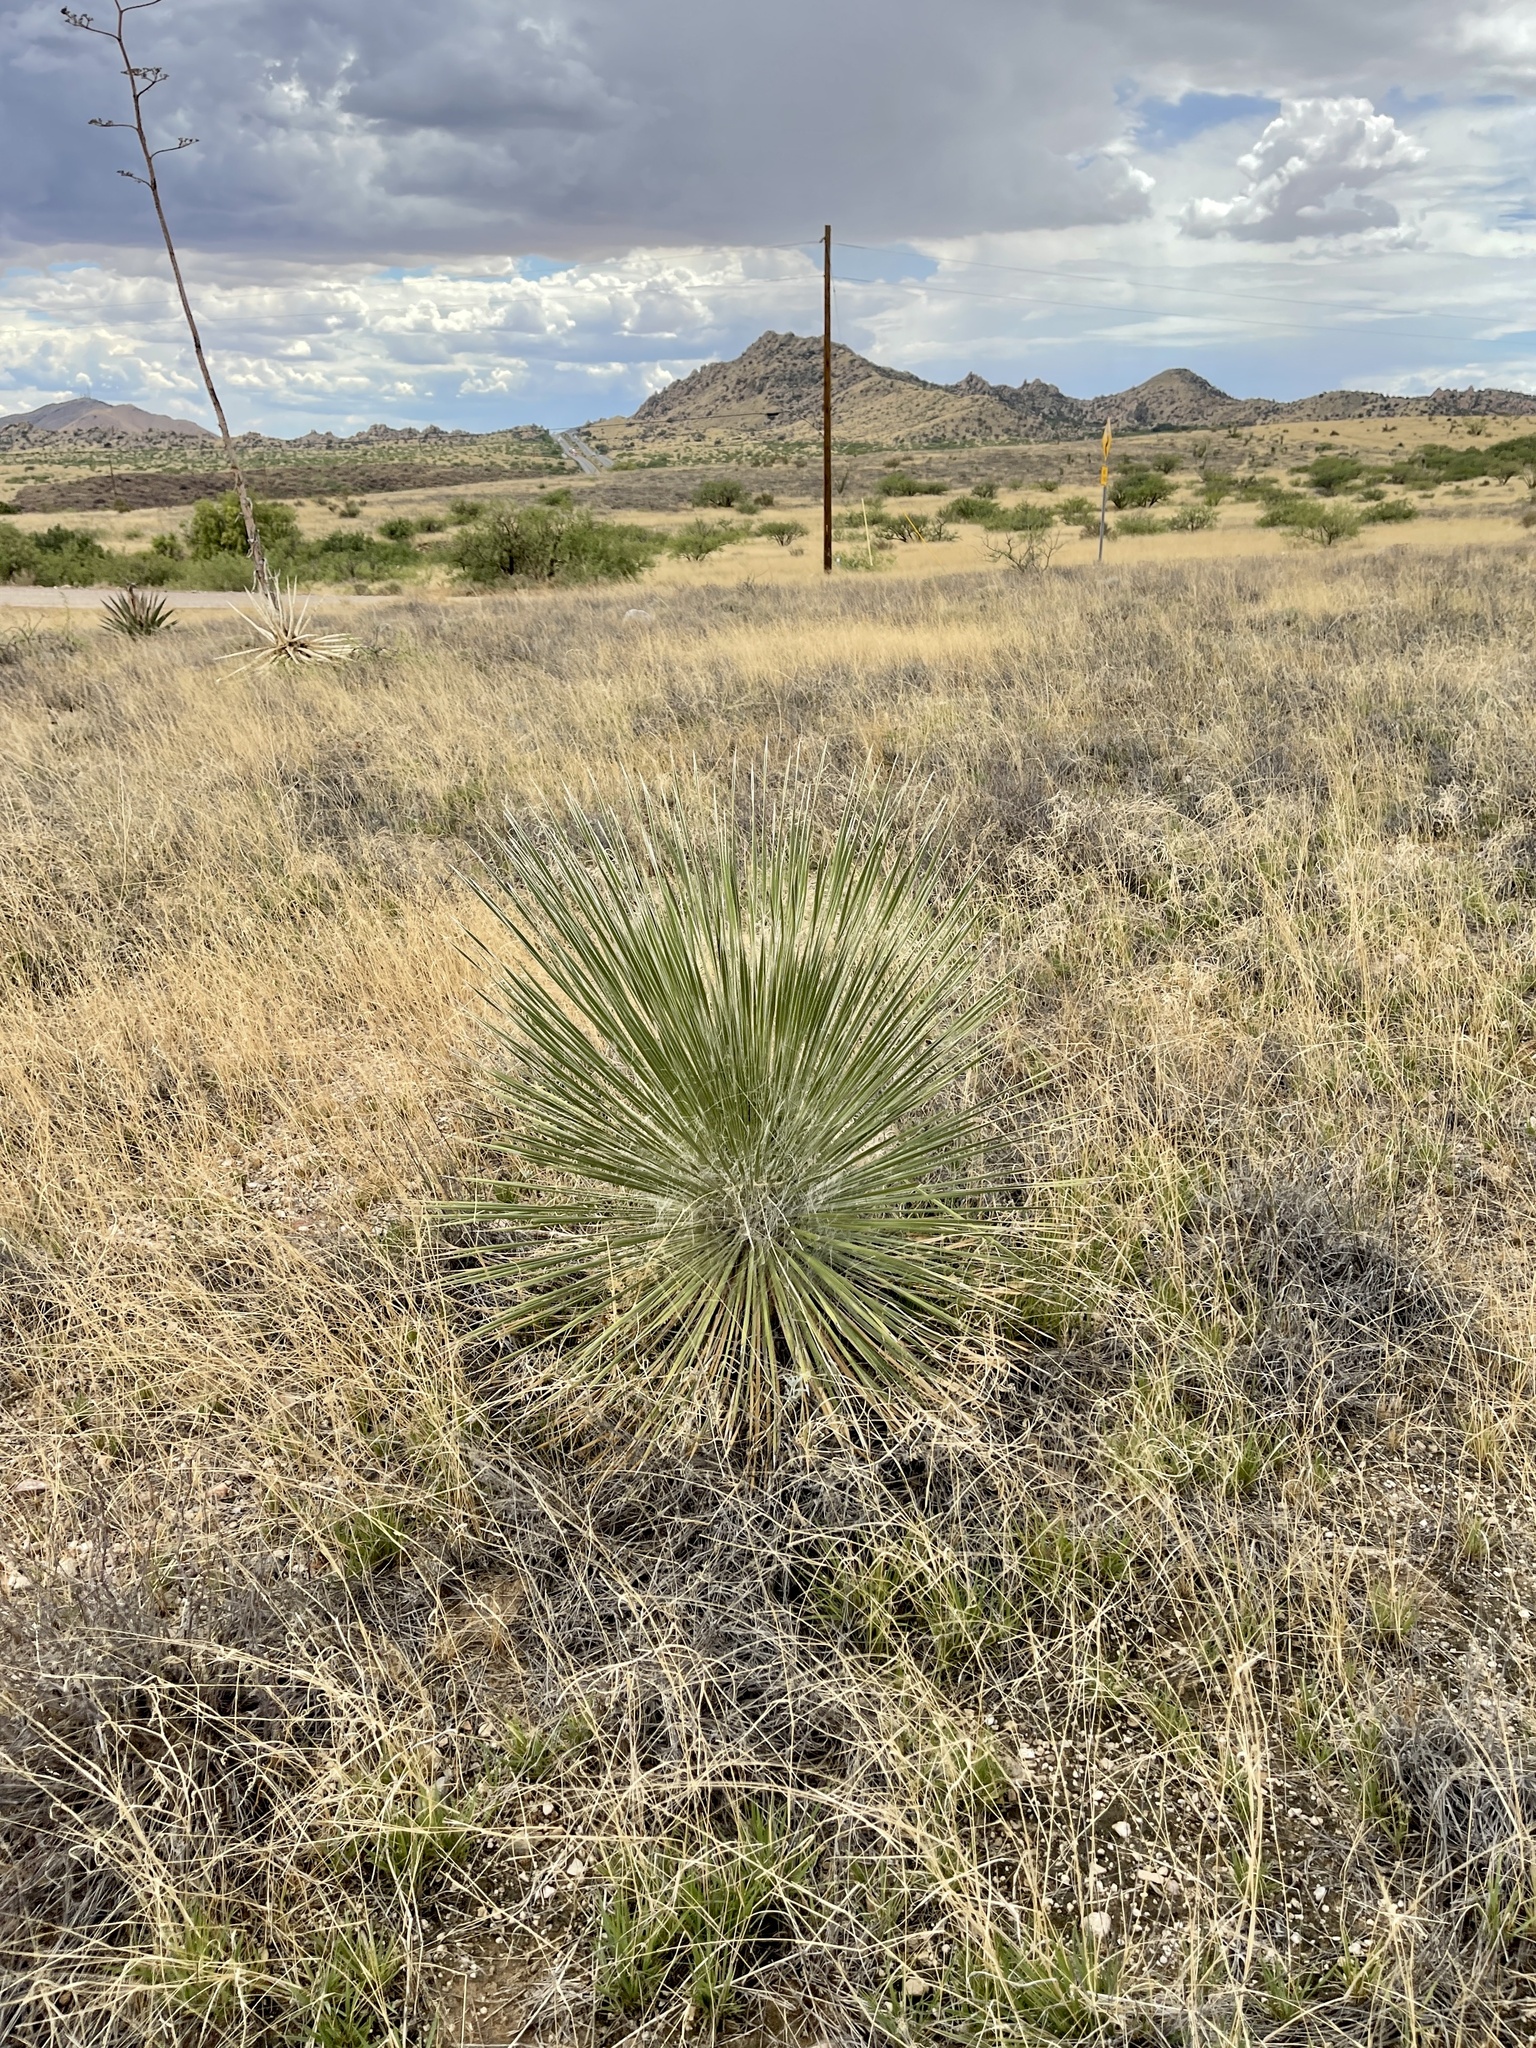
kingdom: Plantae
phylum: Tracheophyta
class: Liliopsida
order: Asparagales
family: Asparagaceae
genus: Yucca
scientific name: Yucca elata
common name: Palmella
